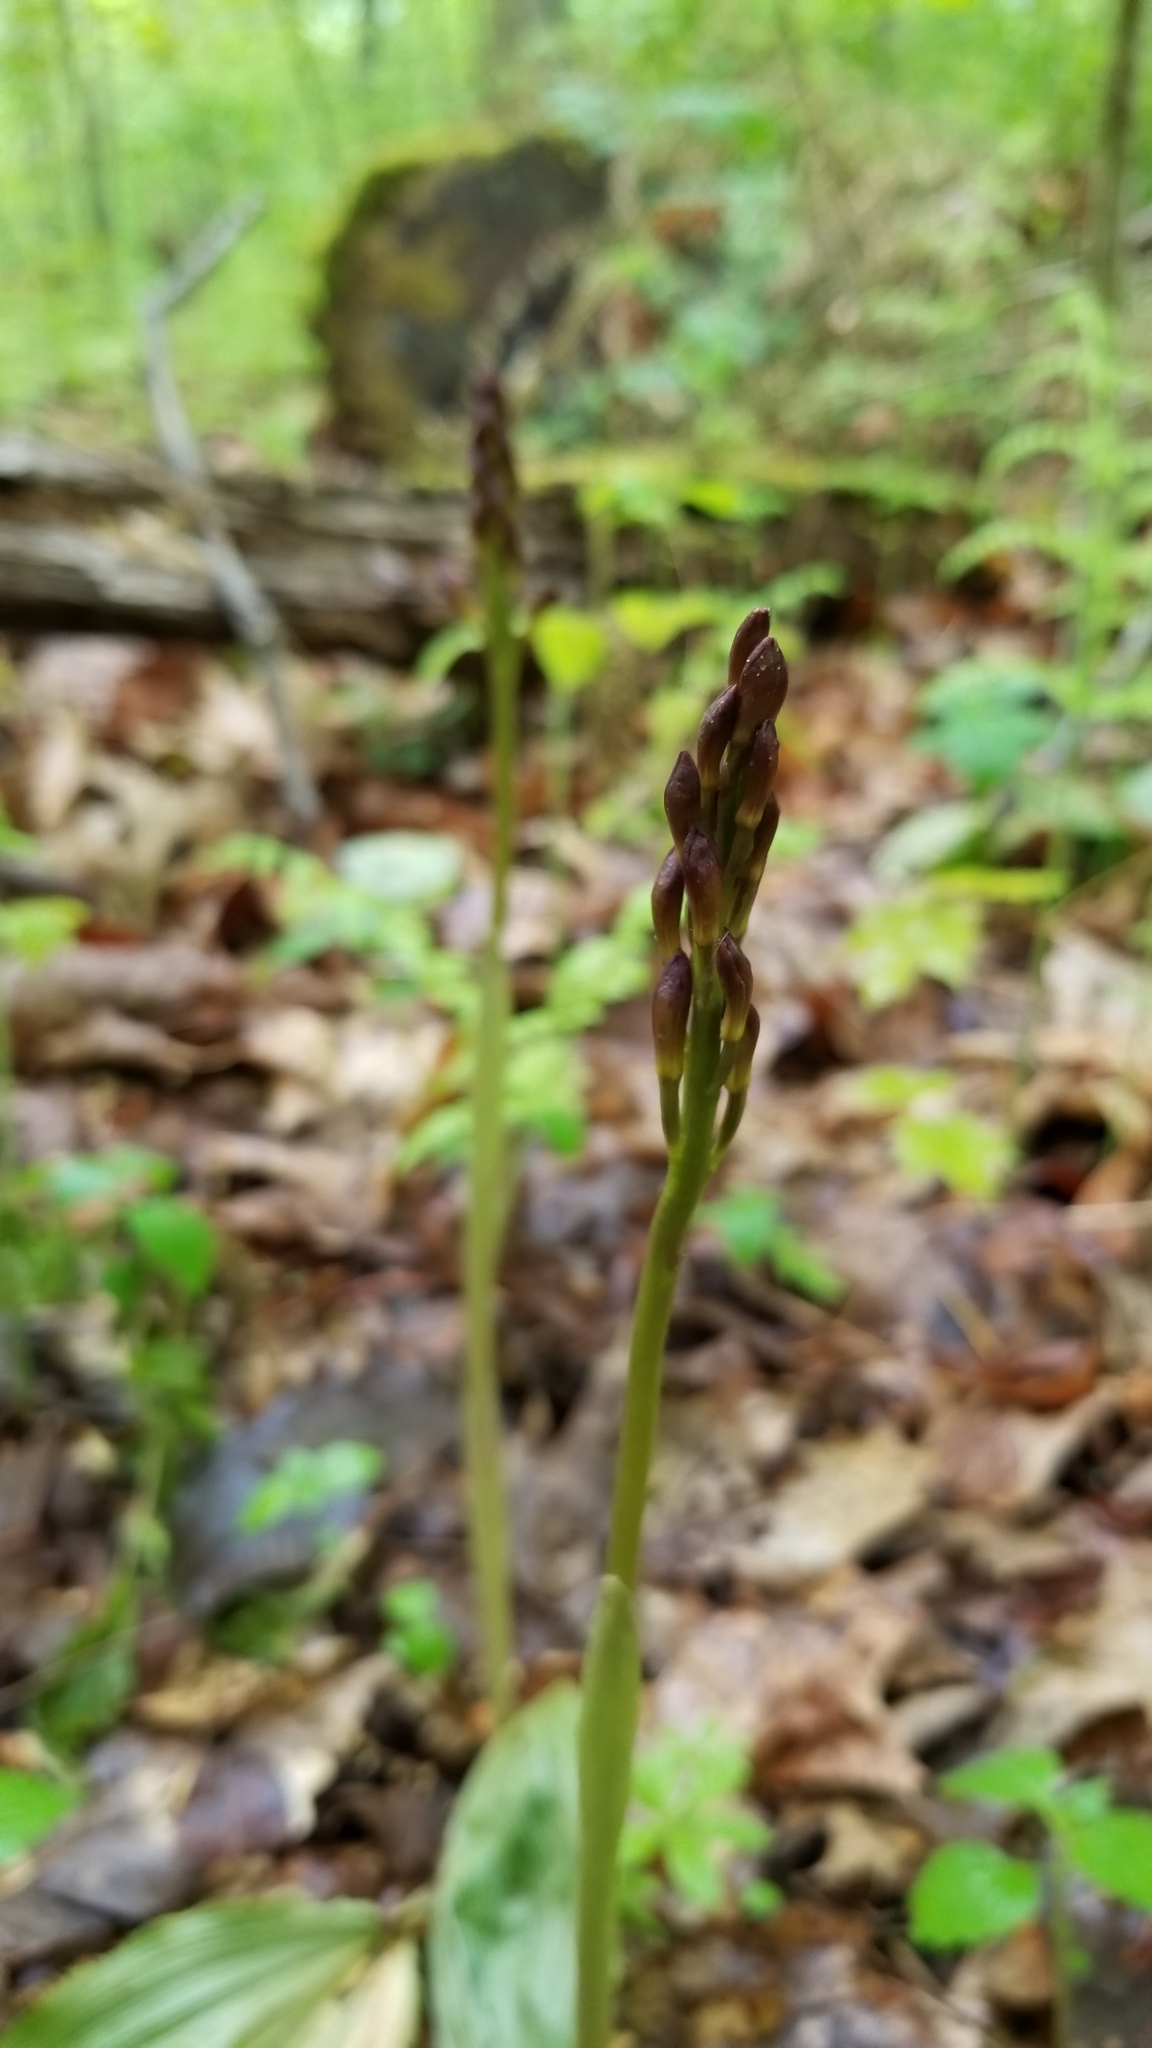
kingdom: Plantae
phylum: Tracheophyta
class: Liliopsida
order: Asparagales
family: Orchidaceae
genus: Aplectrum
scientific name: Aplectrum hyemale
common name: Adam-and-eve
